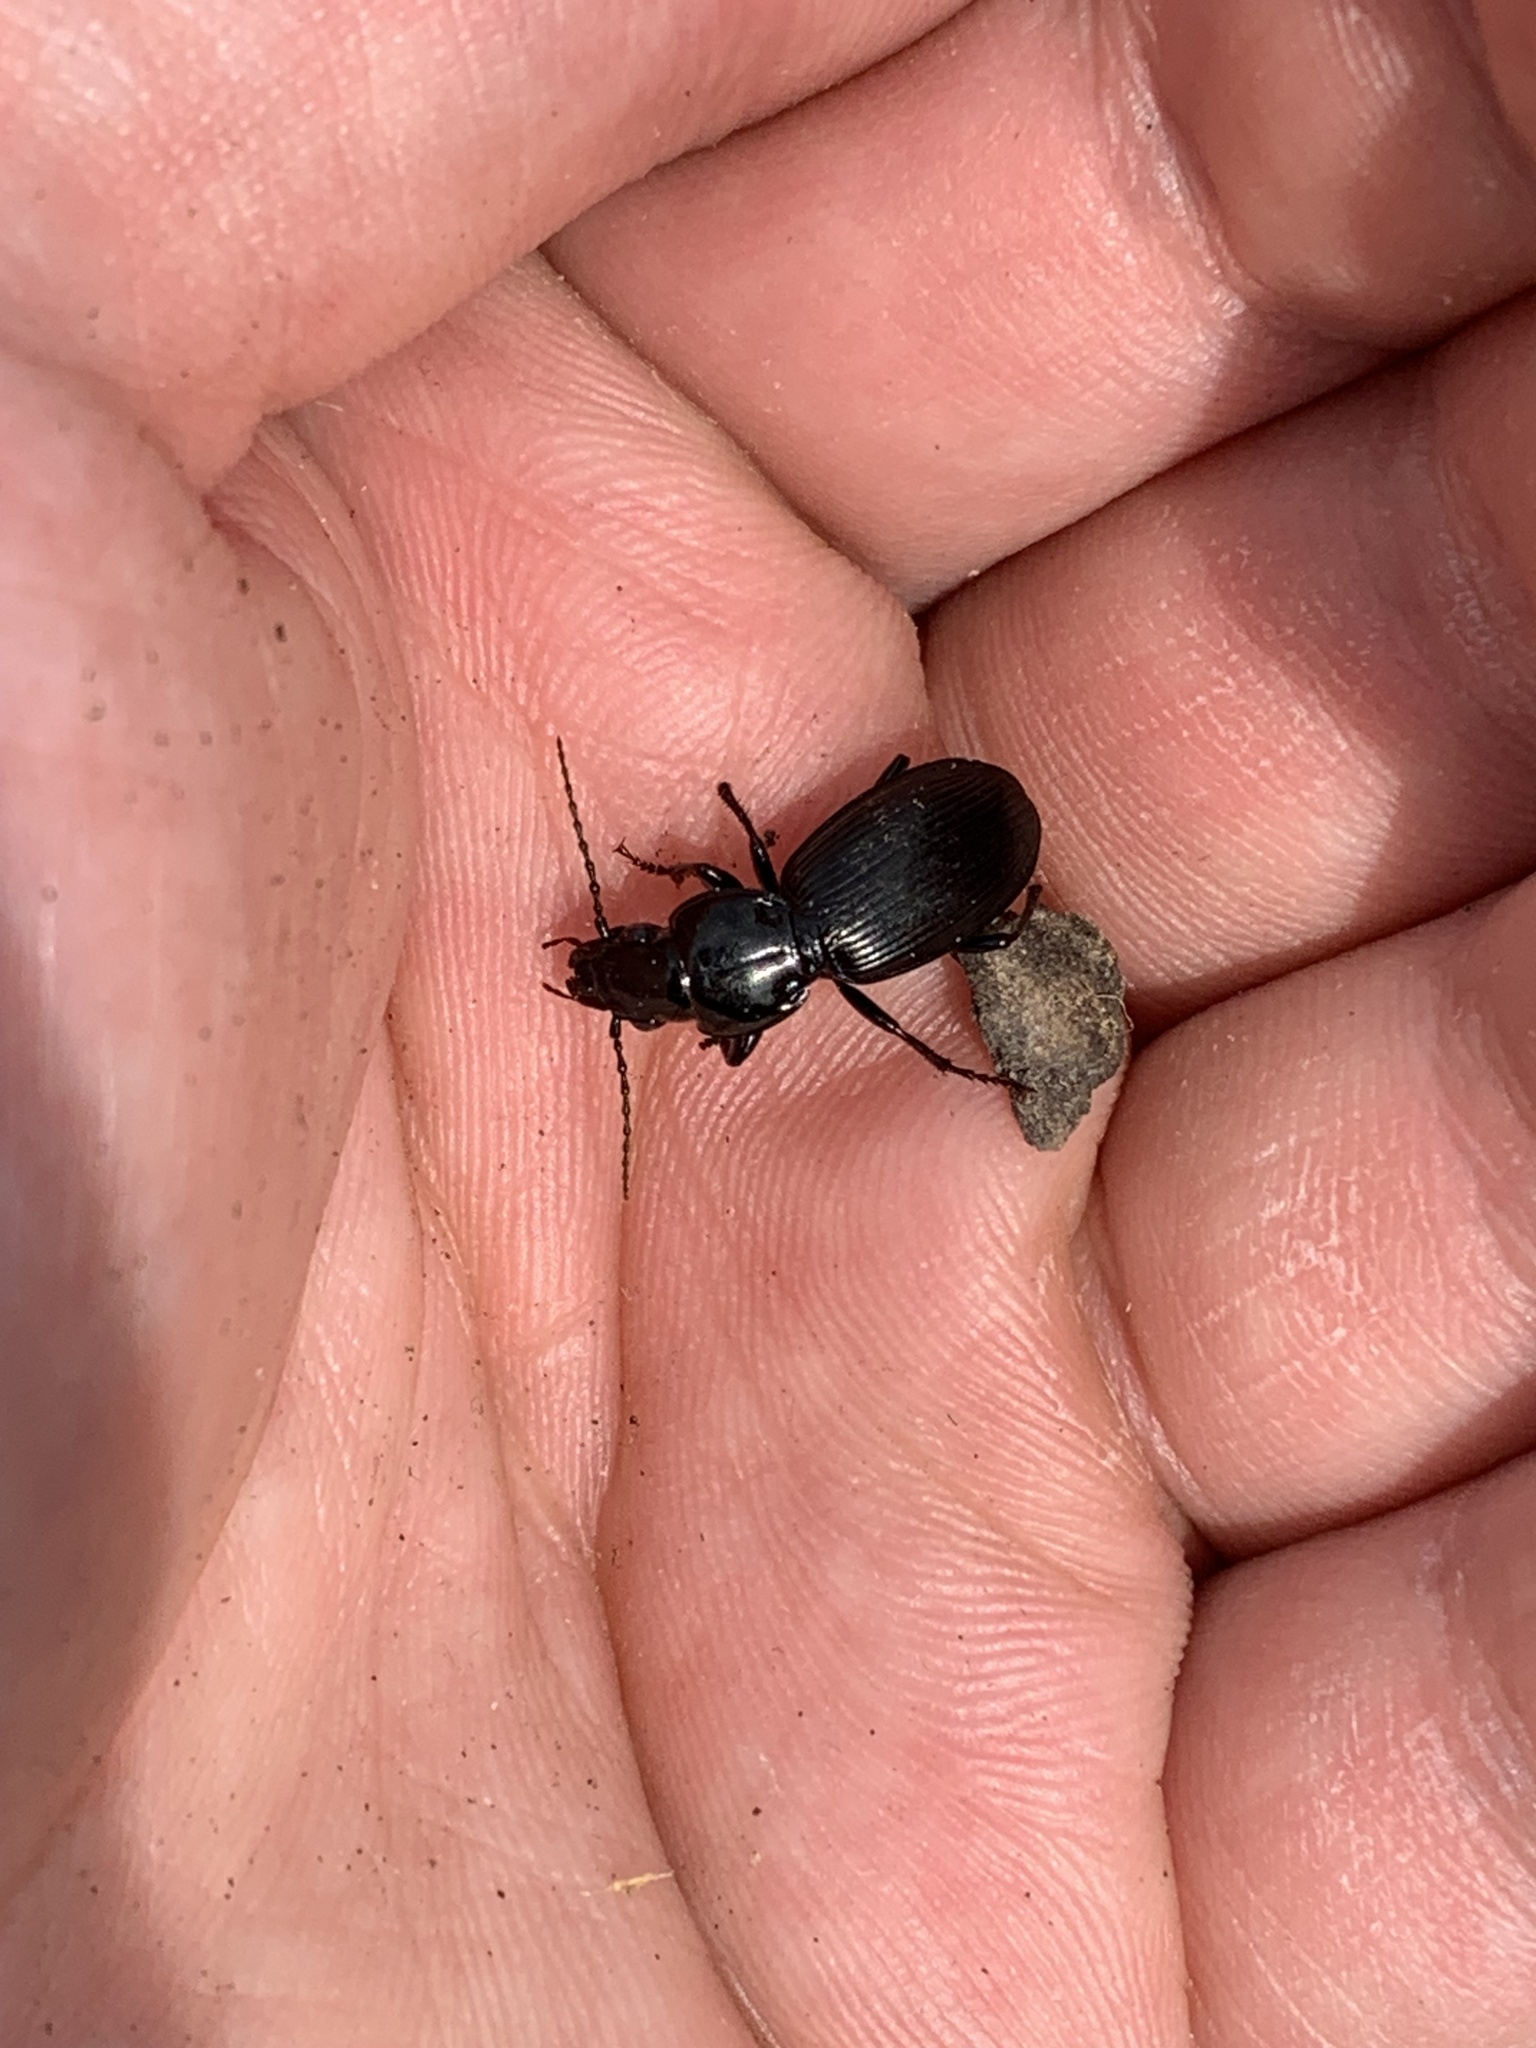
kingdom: Animalia
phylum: Arthropoda
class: Insecta
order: Coleoptera
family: Carabidae
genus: Pterostichus
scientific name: Pterostichus madidus
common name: Black clock
